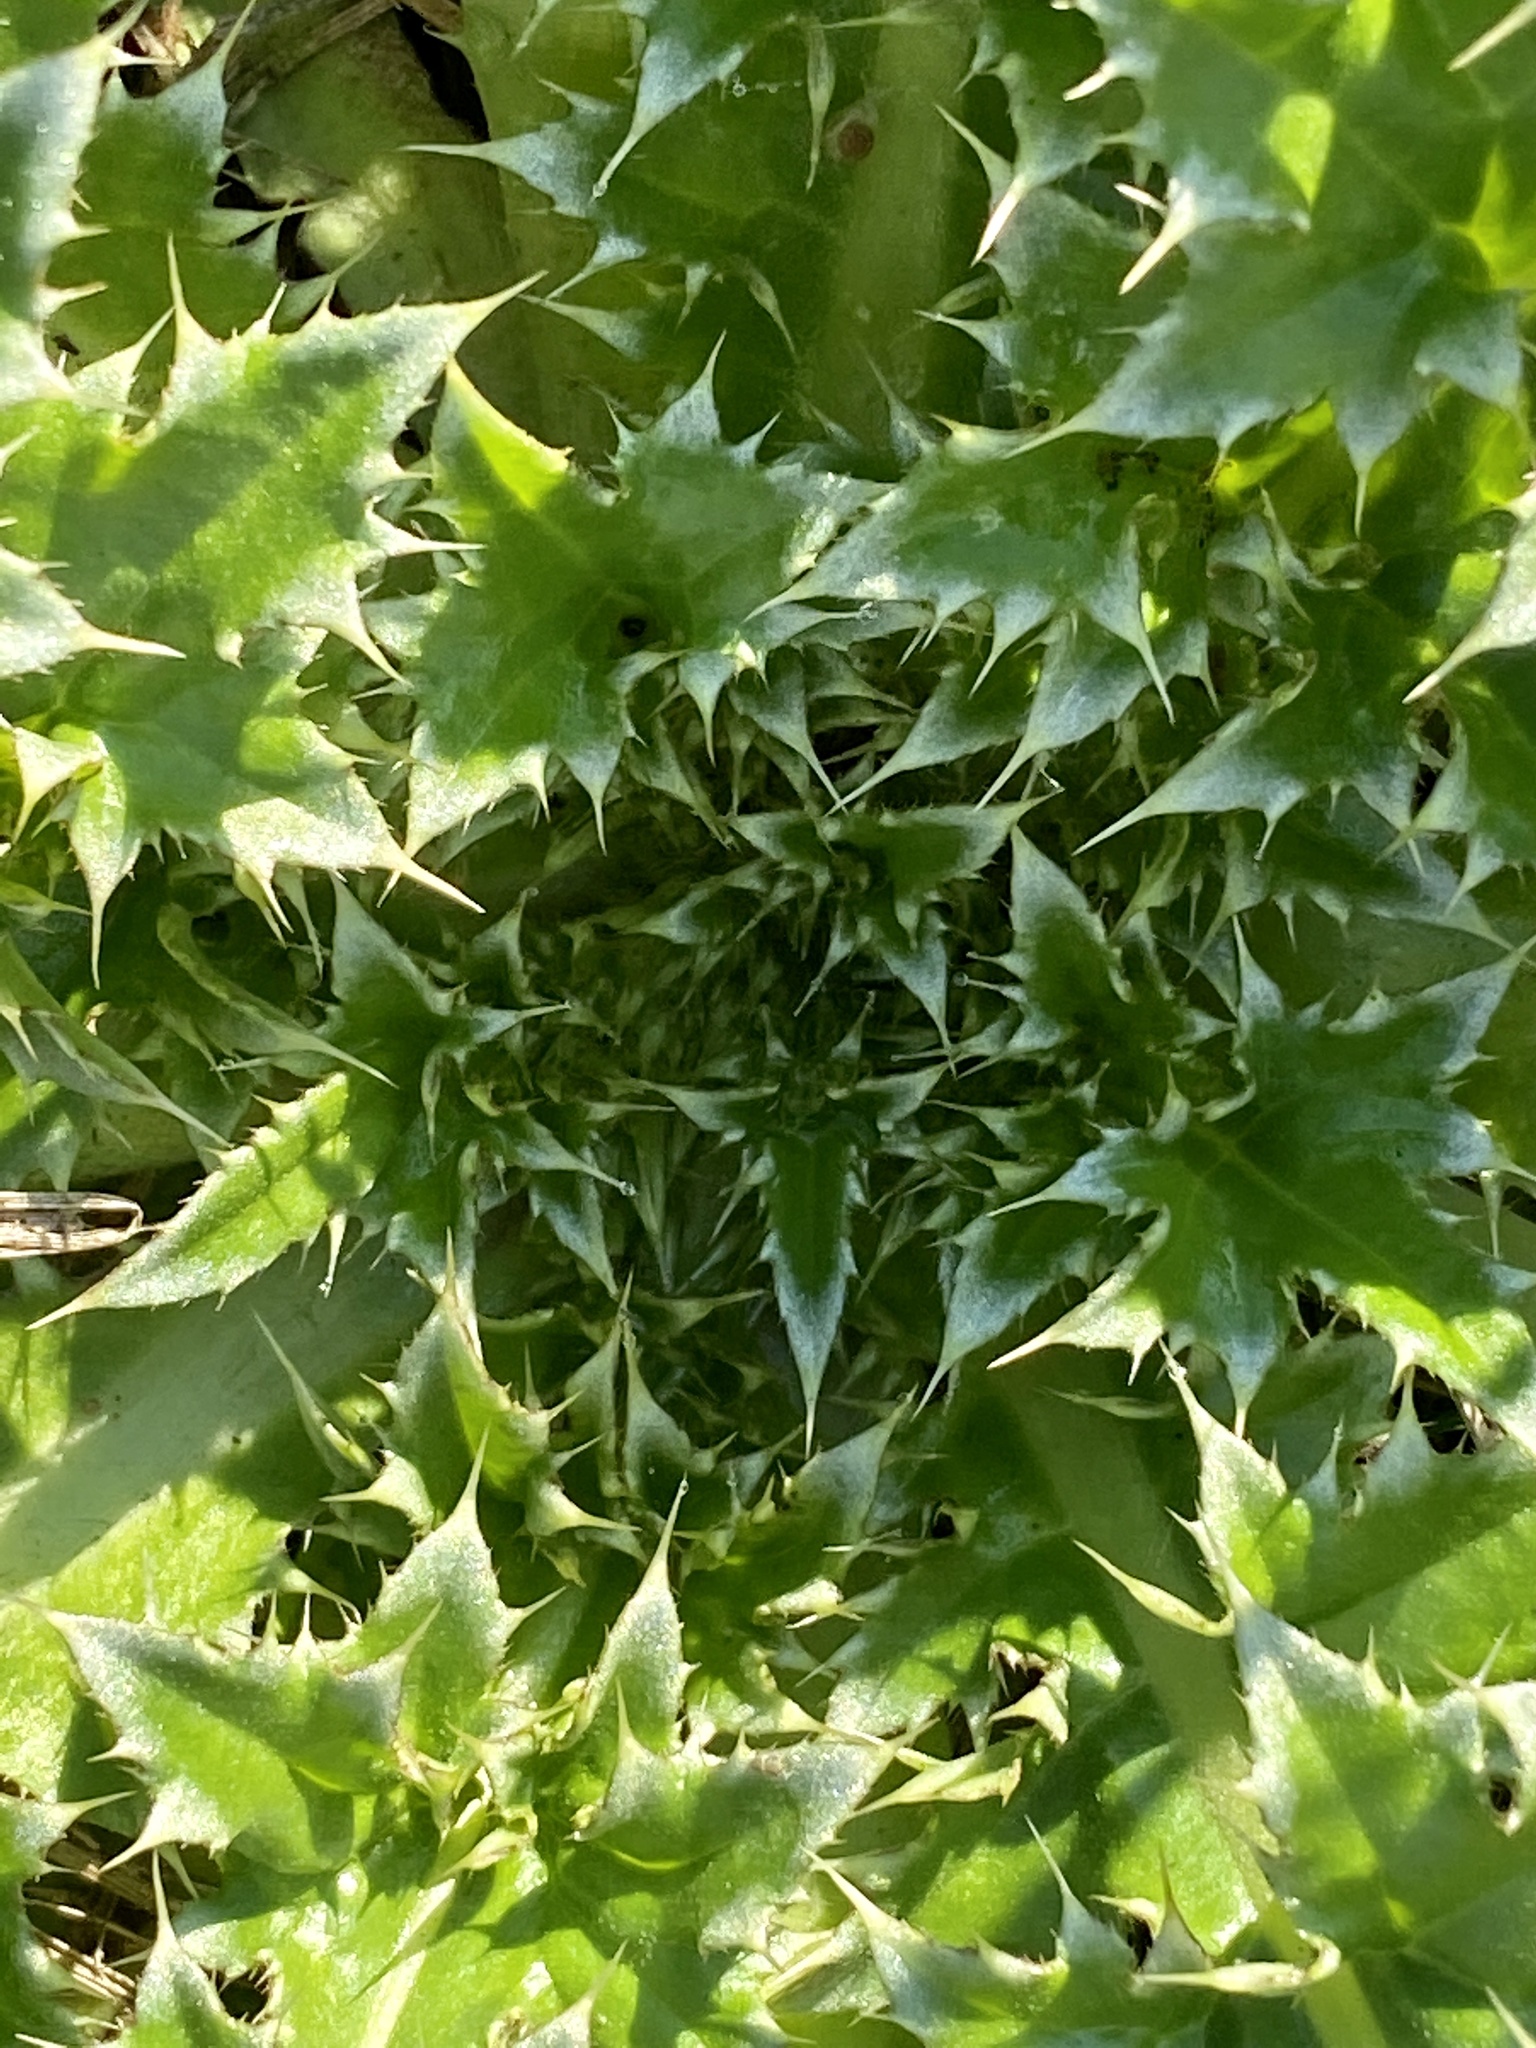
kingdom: Plantae
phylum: Tracheophyta
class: Magnoliopsida
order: Asterales
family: Asteraceae
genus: Carduus
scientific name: Carduus nutans
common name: Musk thistle
